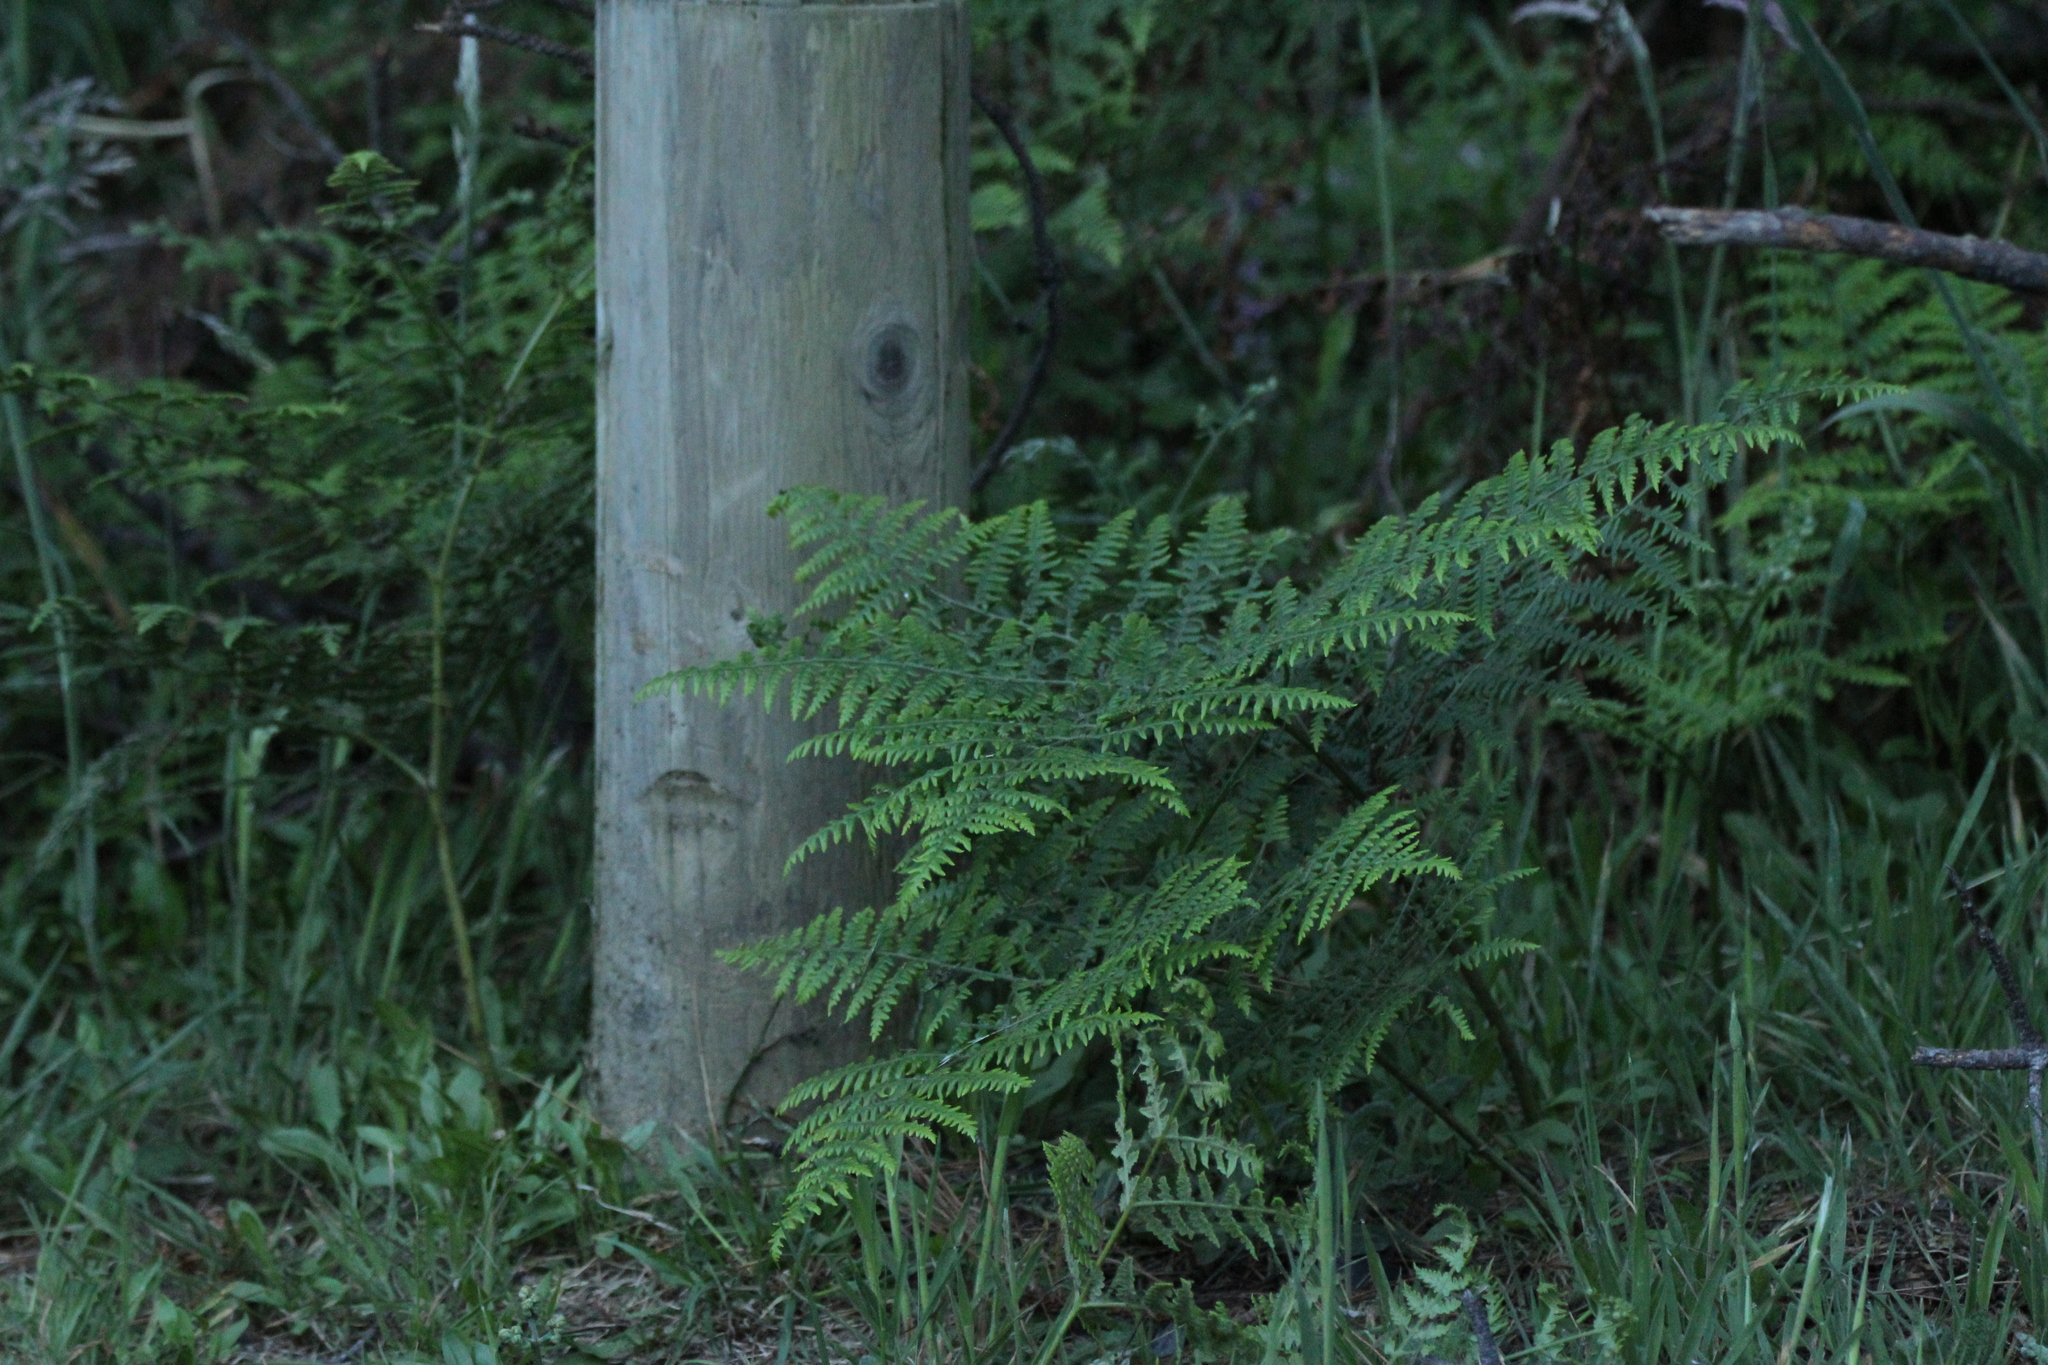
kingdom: Plantae
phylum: Tracheophyta
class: Polypodiopsida
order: Polypodiales
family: Dennstaedtiaceae
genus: Pteridium
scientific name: Pteridium aquilinum
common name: Bracken
